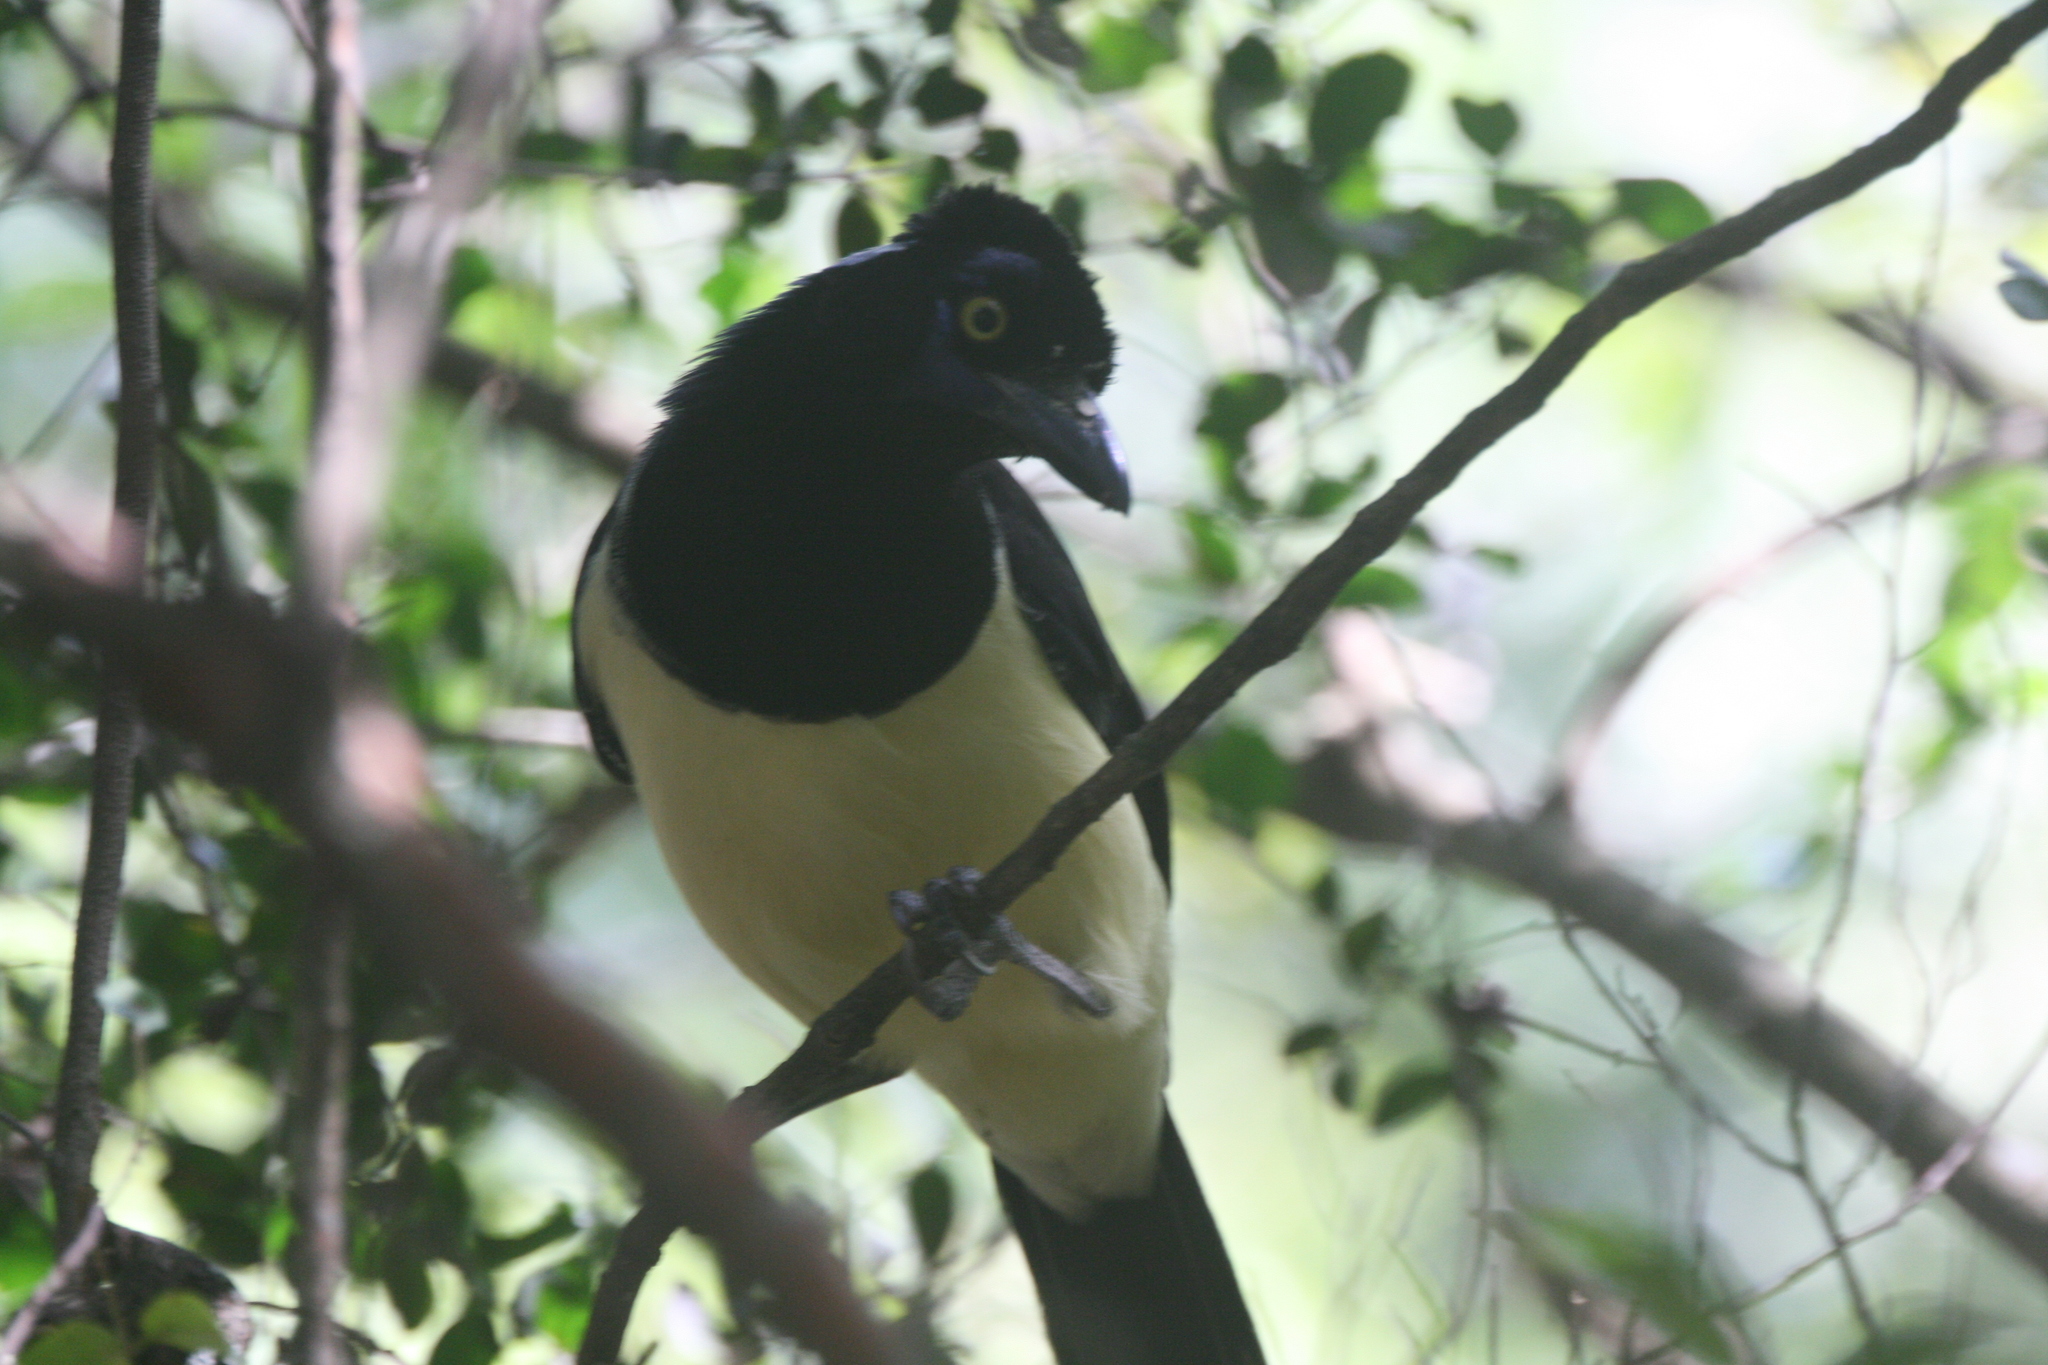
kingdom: Animalia
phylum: Chordata
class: Aves
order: Passeriformes
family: Corvidae
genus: Cyanocorax
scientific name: Cyanocorax chrysops
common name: Plush-crested jay
